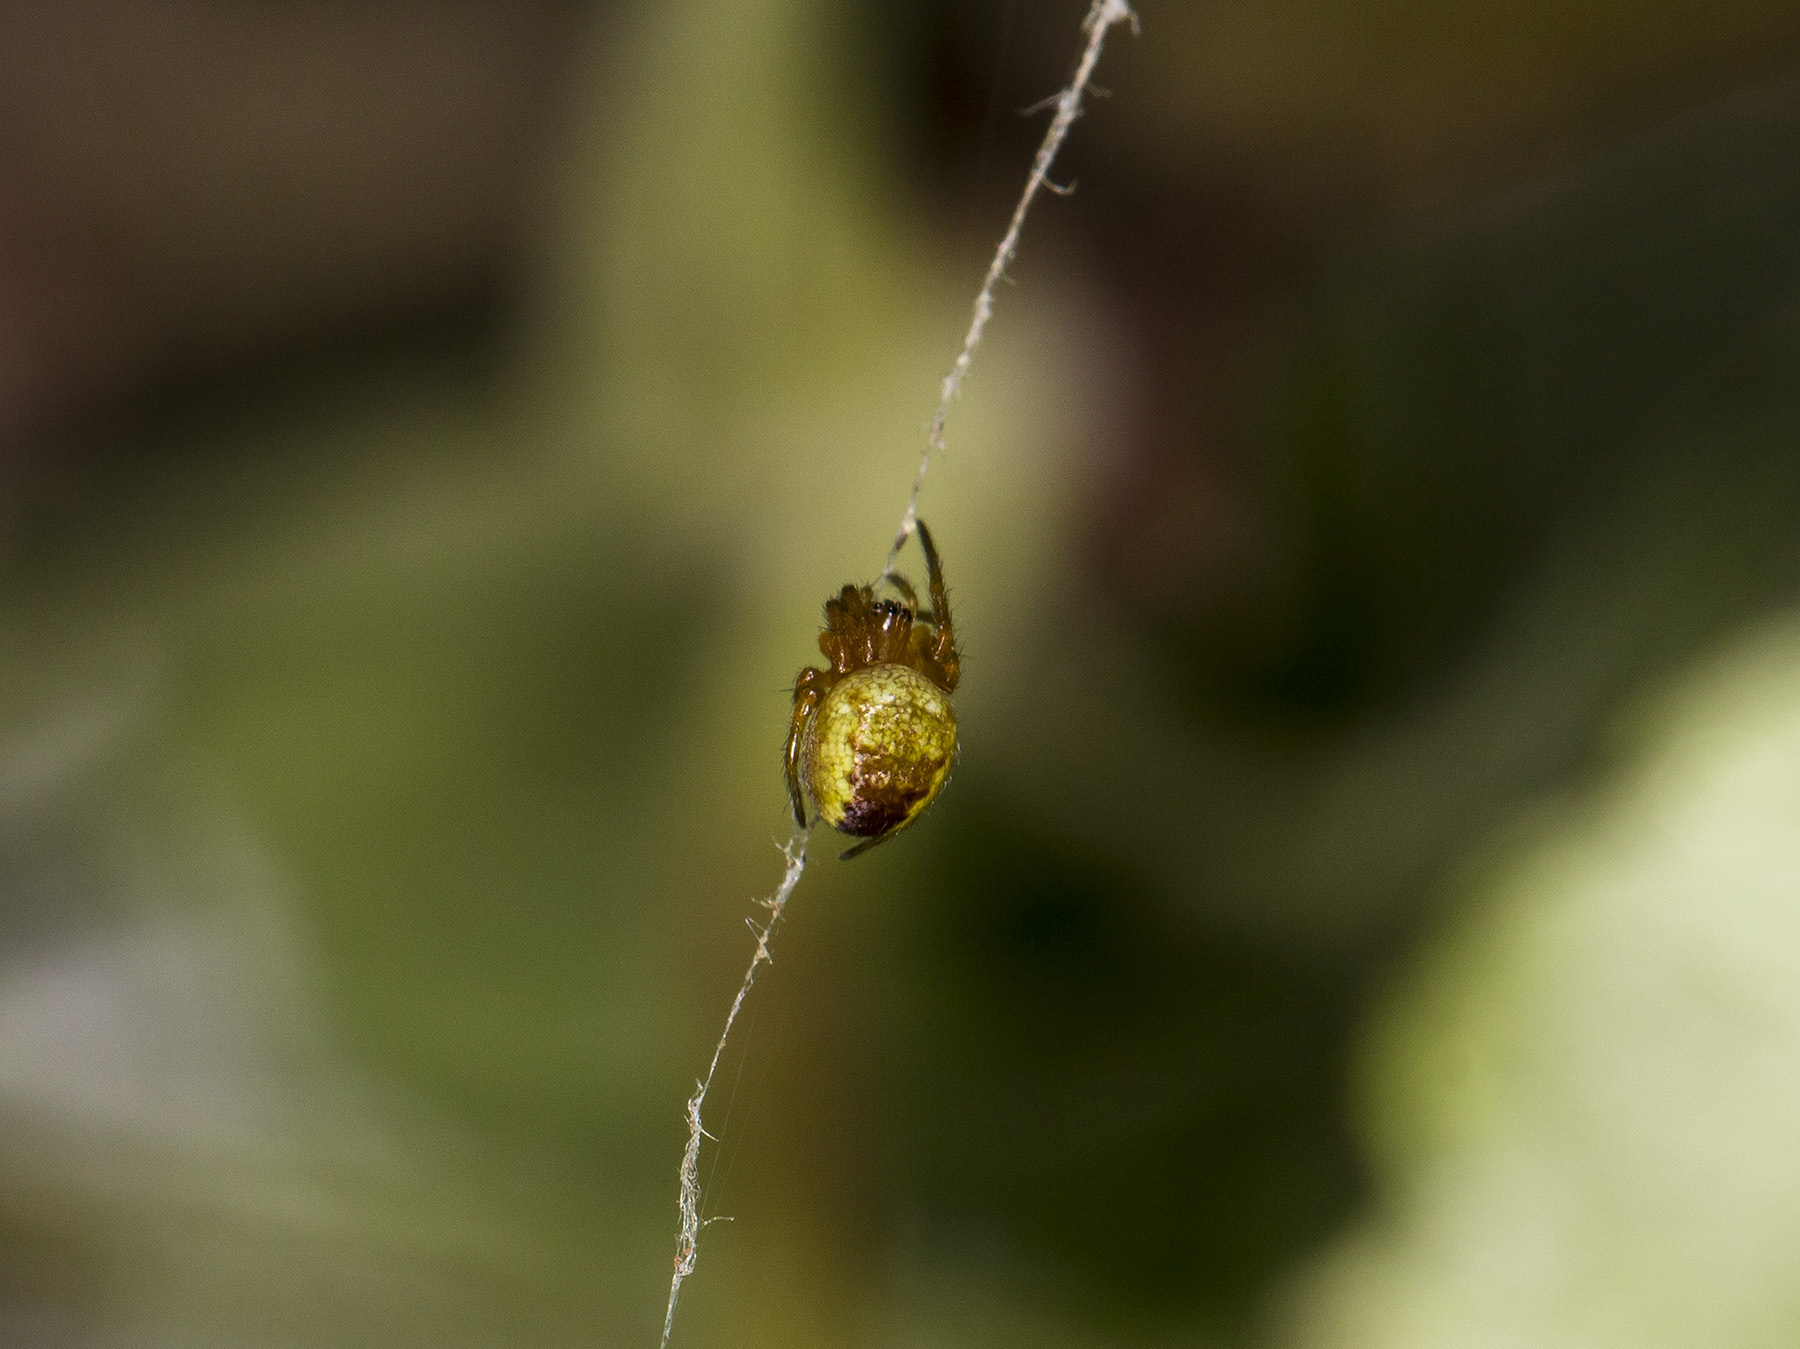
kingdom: Animalia
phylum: Arthropoda
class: Arachnida
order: Araneae
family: Araneidae
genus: Araneus
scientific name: Araneus diadematus
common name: Cross orbweaver
